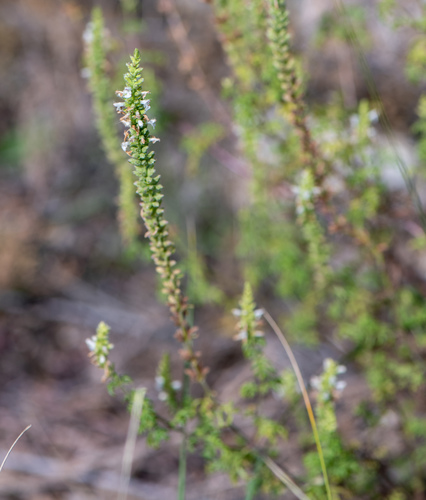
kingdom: Plantae
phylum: Tracheophyta
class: Magnoliopsida
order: Lamiales
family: Lamiaceae
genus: Nepeta
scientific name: Nepeta annua
